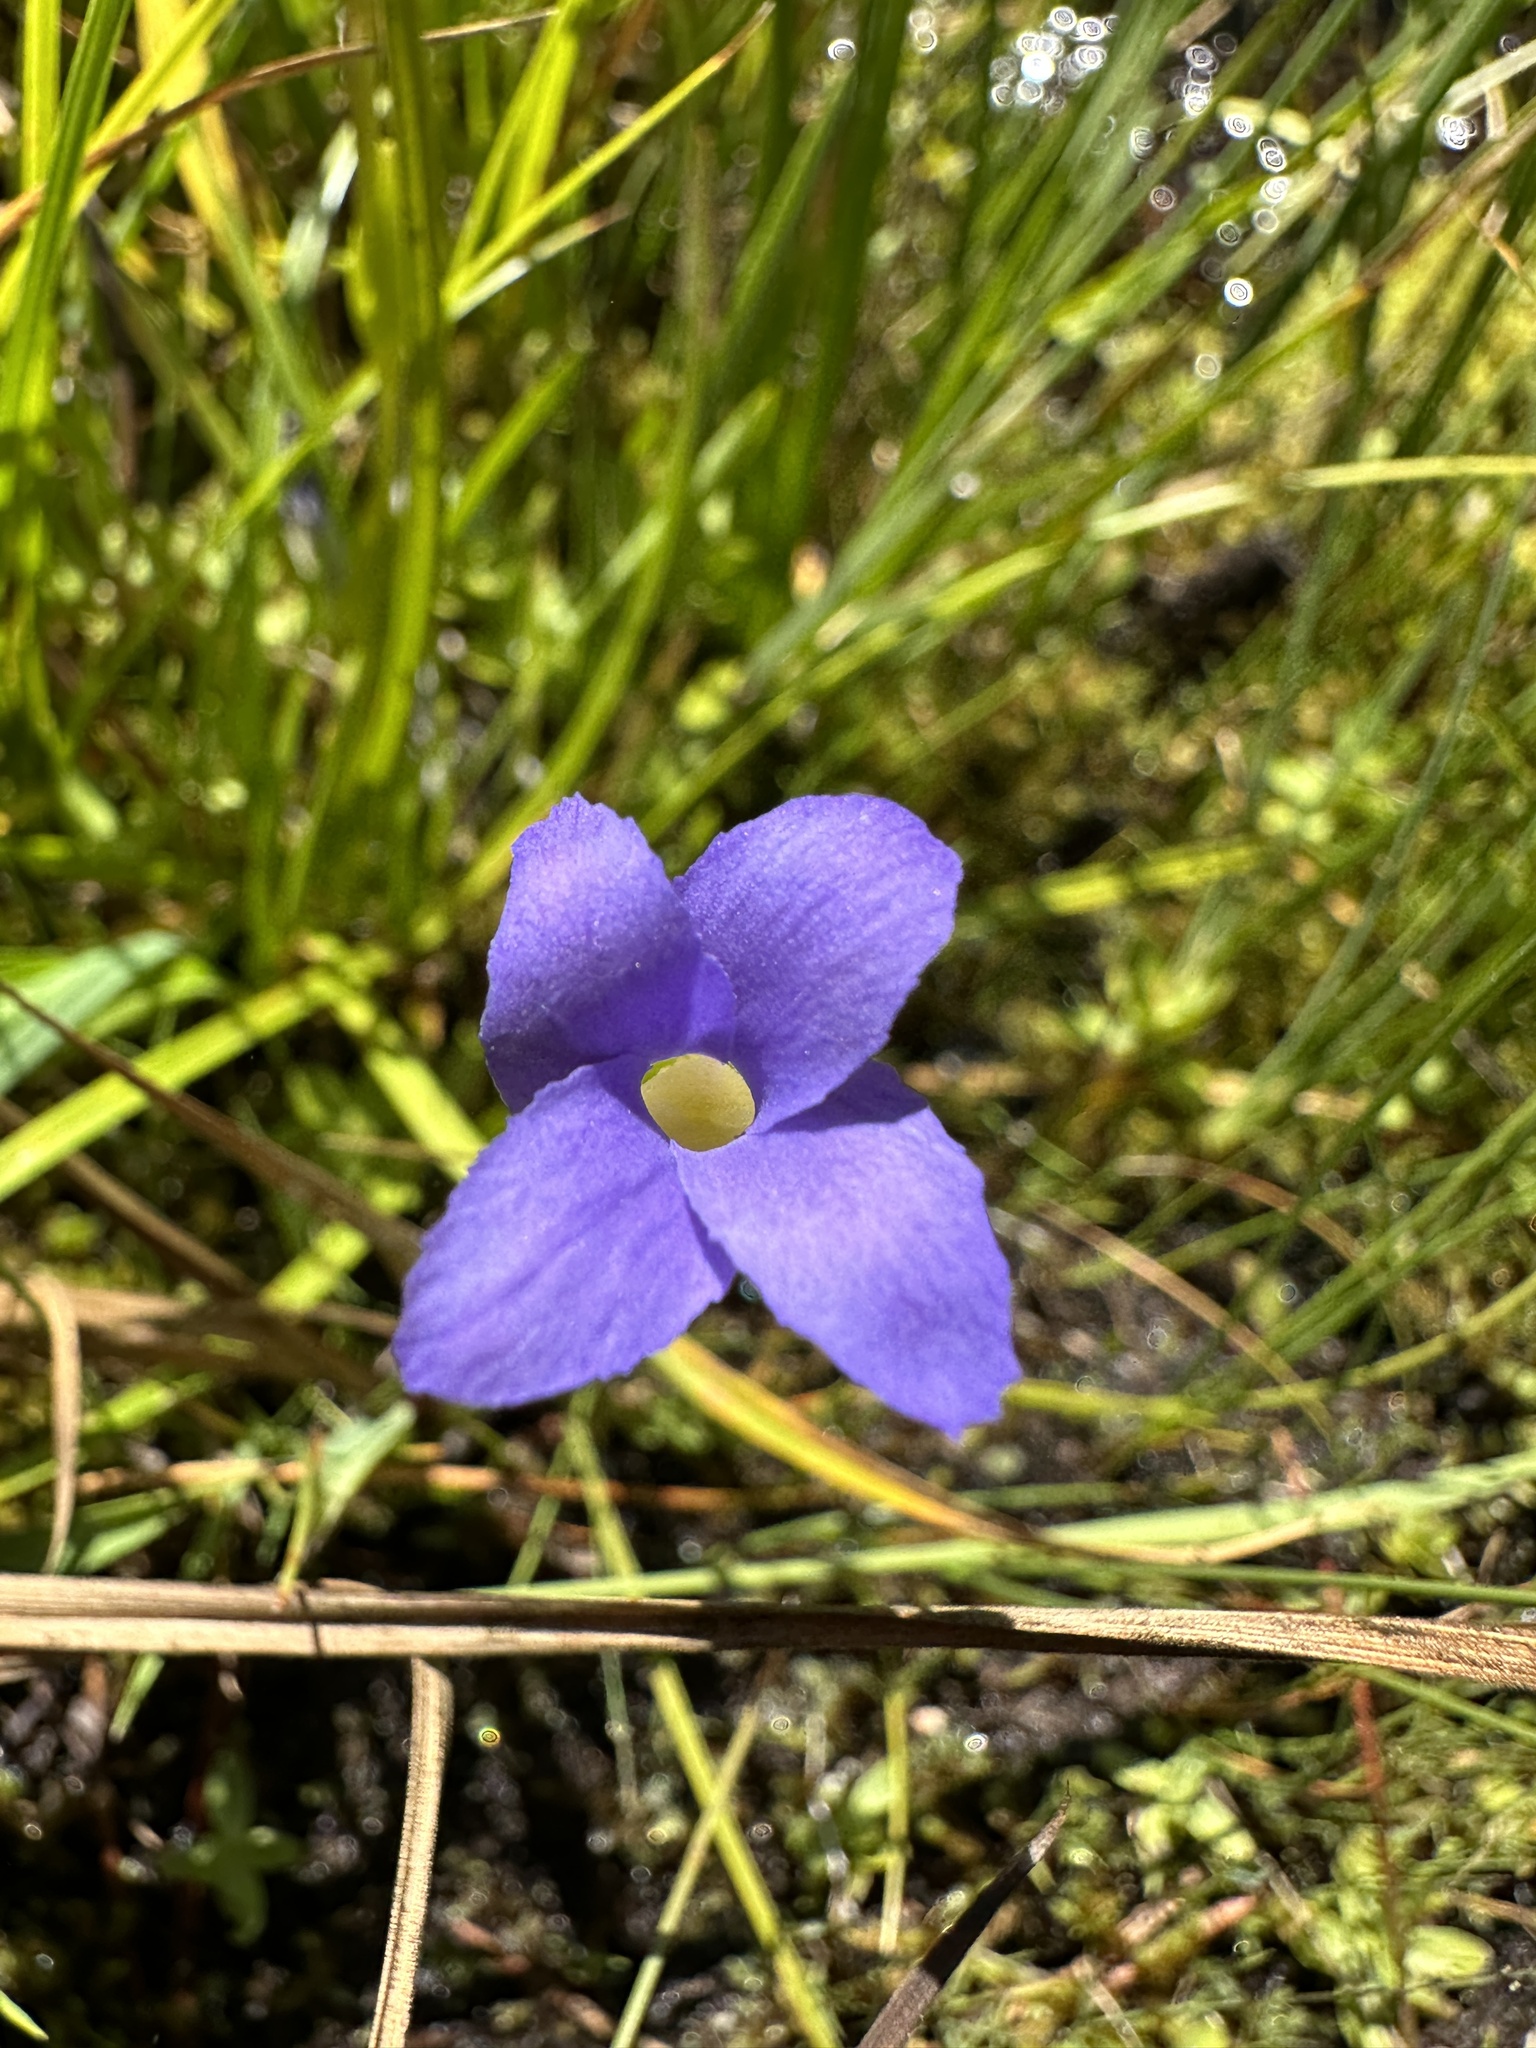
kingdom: Plantae
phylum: Tracheophyta
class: Magnoliopsida
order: Gentianales
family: Gentianaceae
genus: Gentianopsis
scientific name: Gentianopsis simplex
